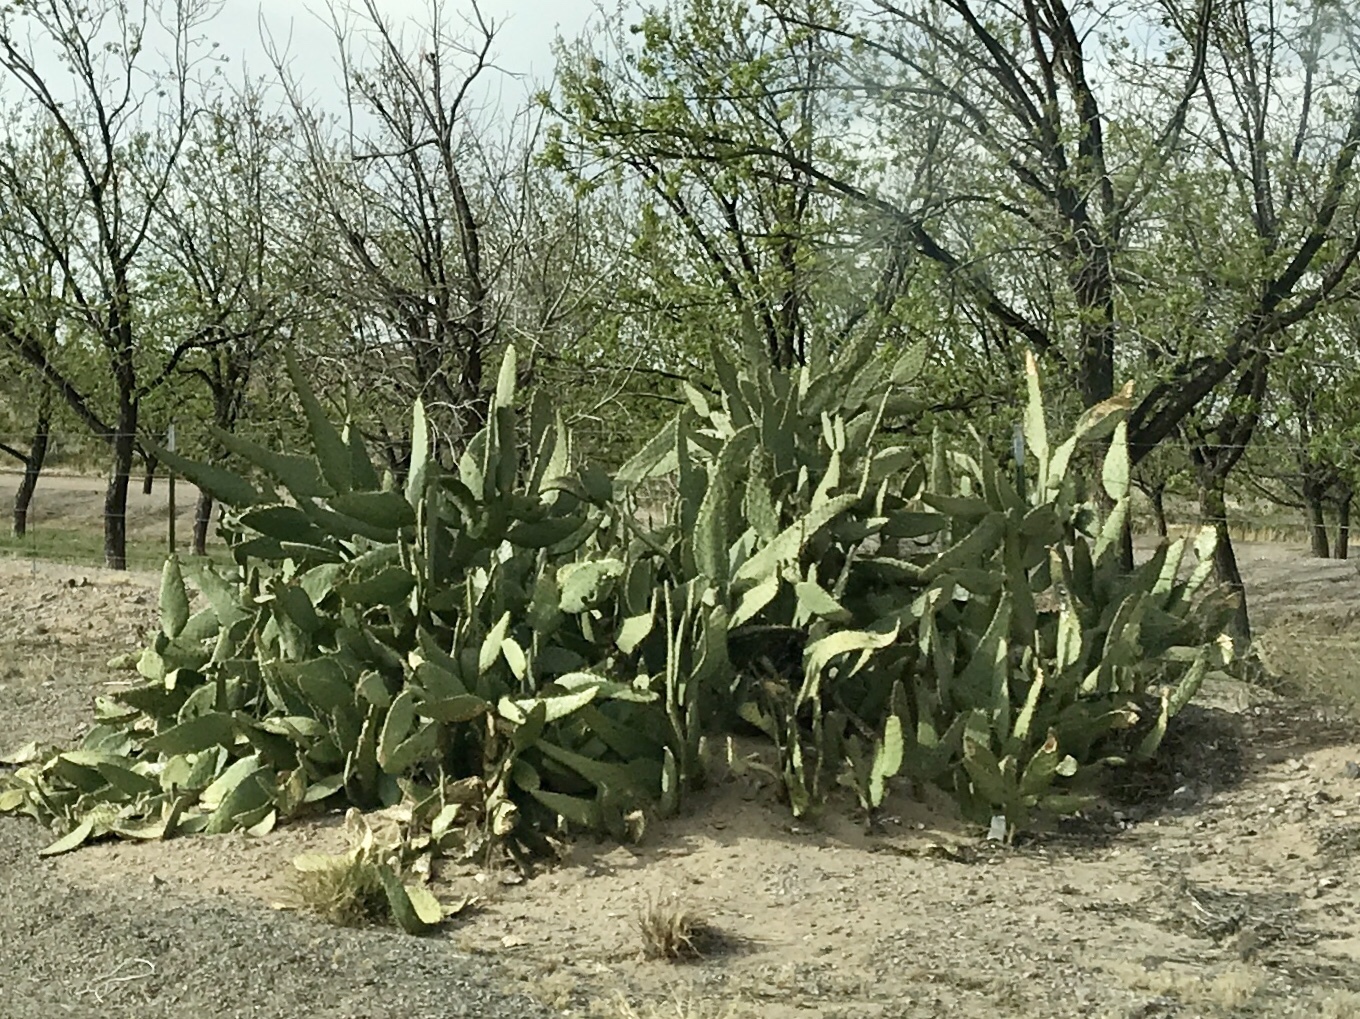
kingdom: Plantae
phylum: Tracheophyta
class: Magnoliopsida
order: Caryophyllales
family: Cactaceae
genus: Opuntia
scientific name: Opuntia engelmannii
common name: Cactus-apple
